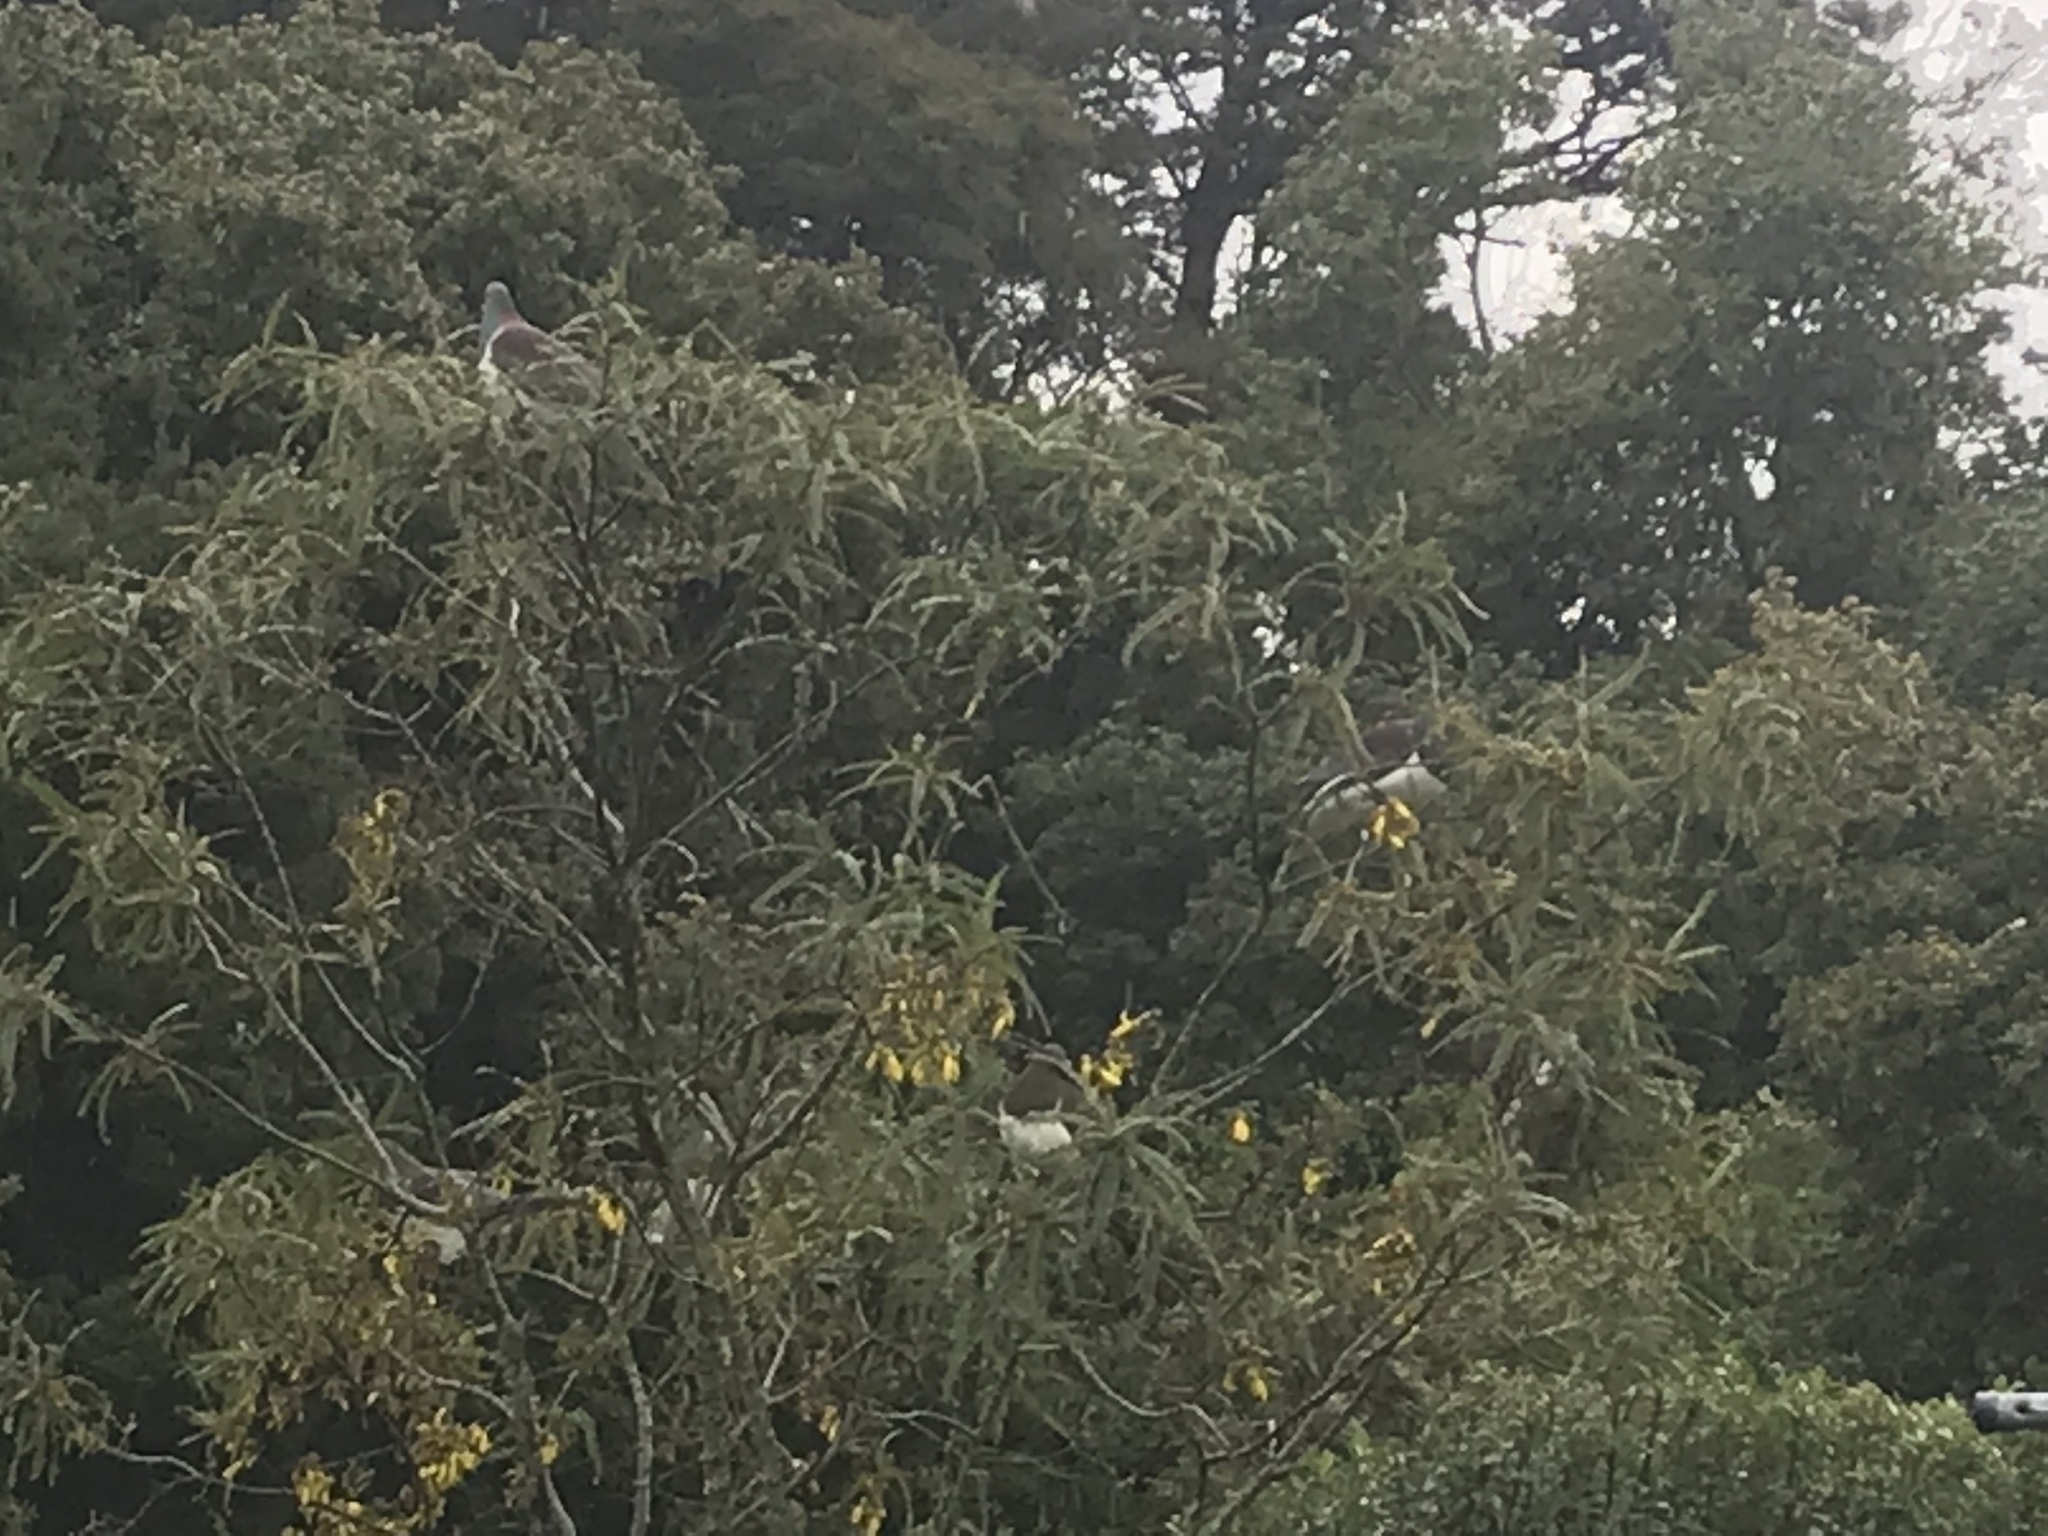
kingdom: Animalia
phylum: Chordata
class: Aves
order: Columbiformes
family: Columbidae
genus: Hemiphaga
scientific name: Hemiphaga novaeseelandiae
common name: New zealand pigeon
